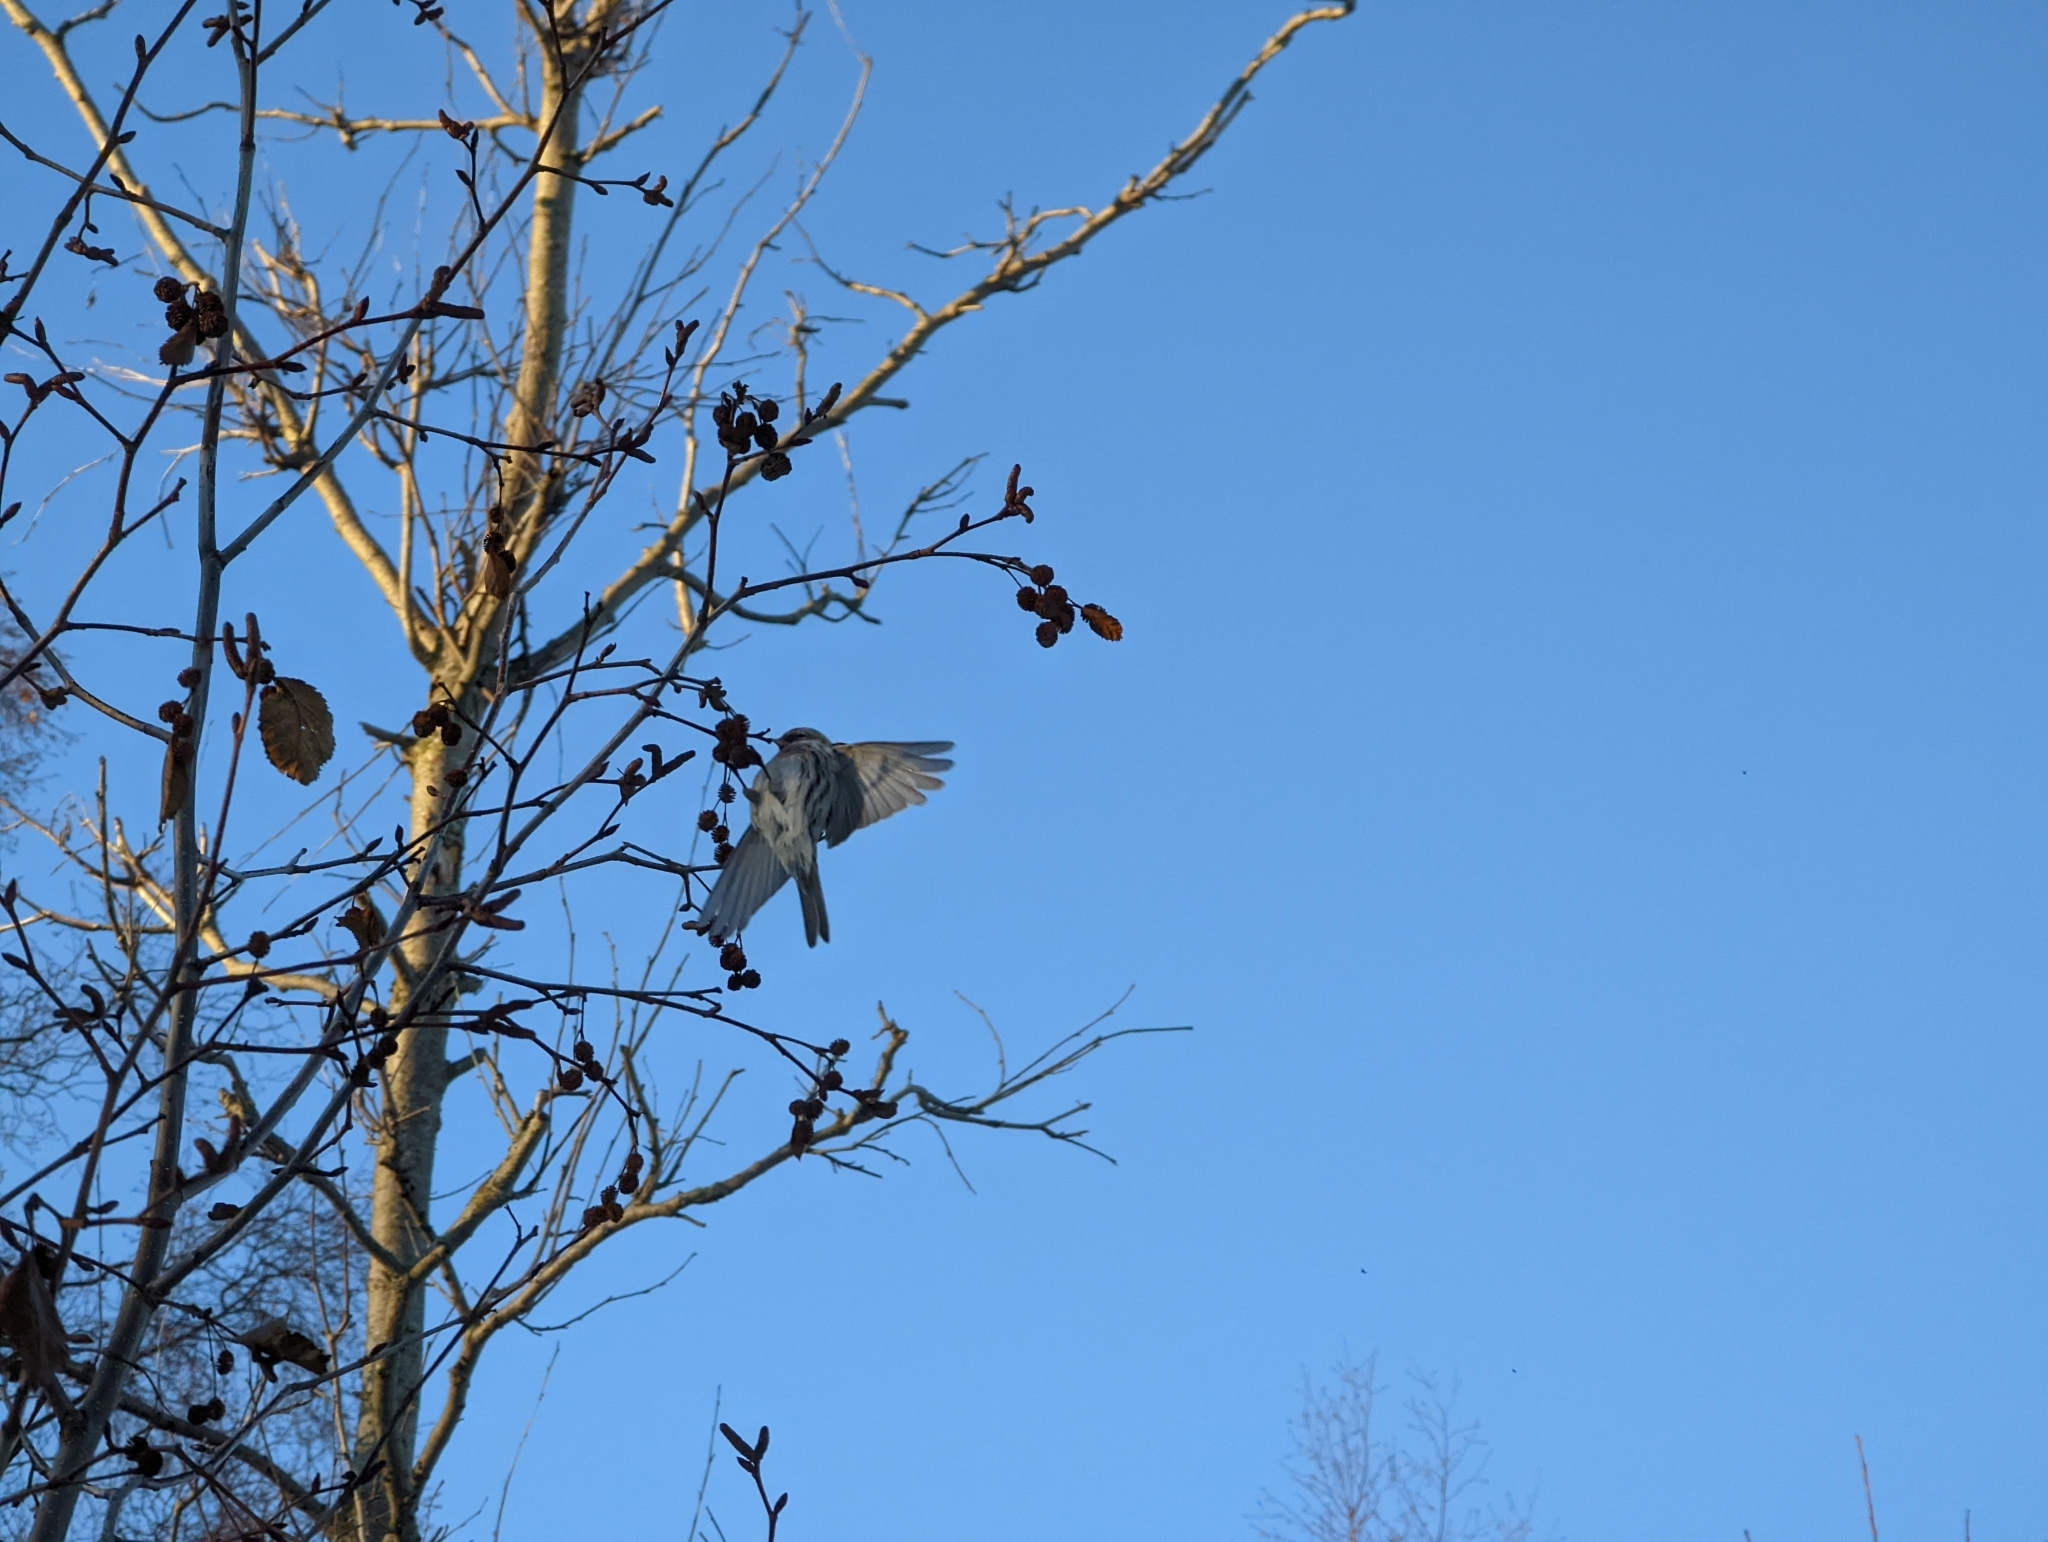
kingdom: Animalia
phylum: Chordata
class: Aves
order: Passeriformes
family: Fringillidae
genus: Acanthis
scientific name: Acanthis flammea
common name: Common redpoll
